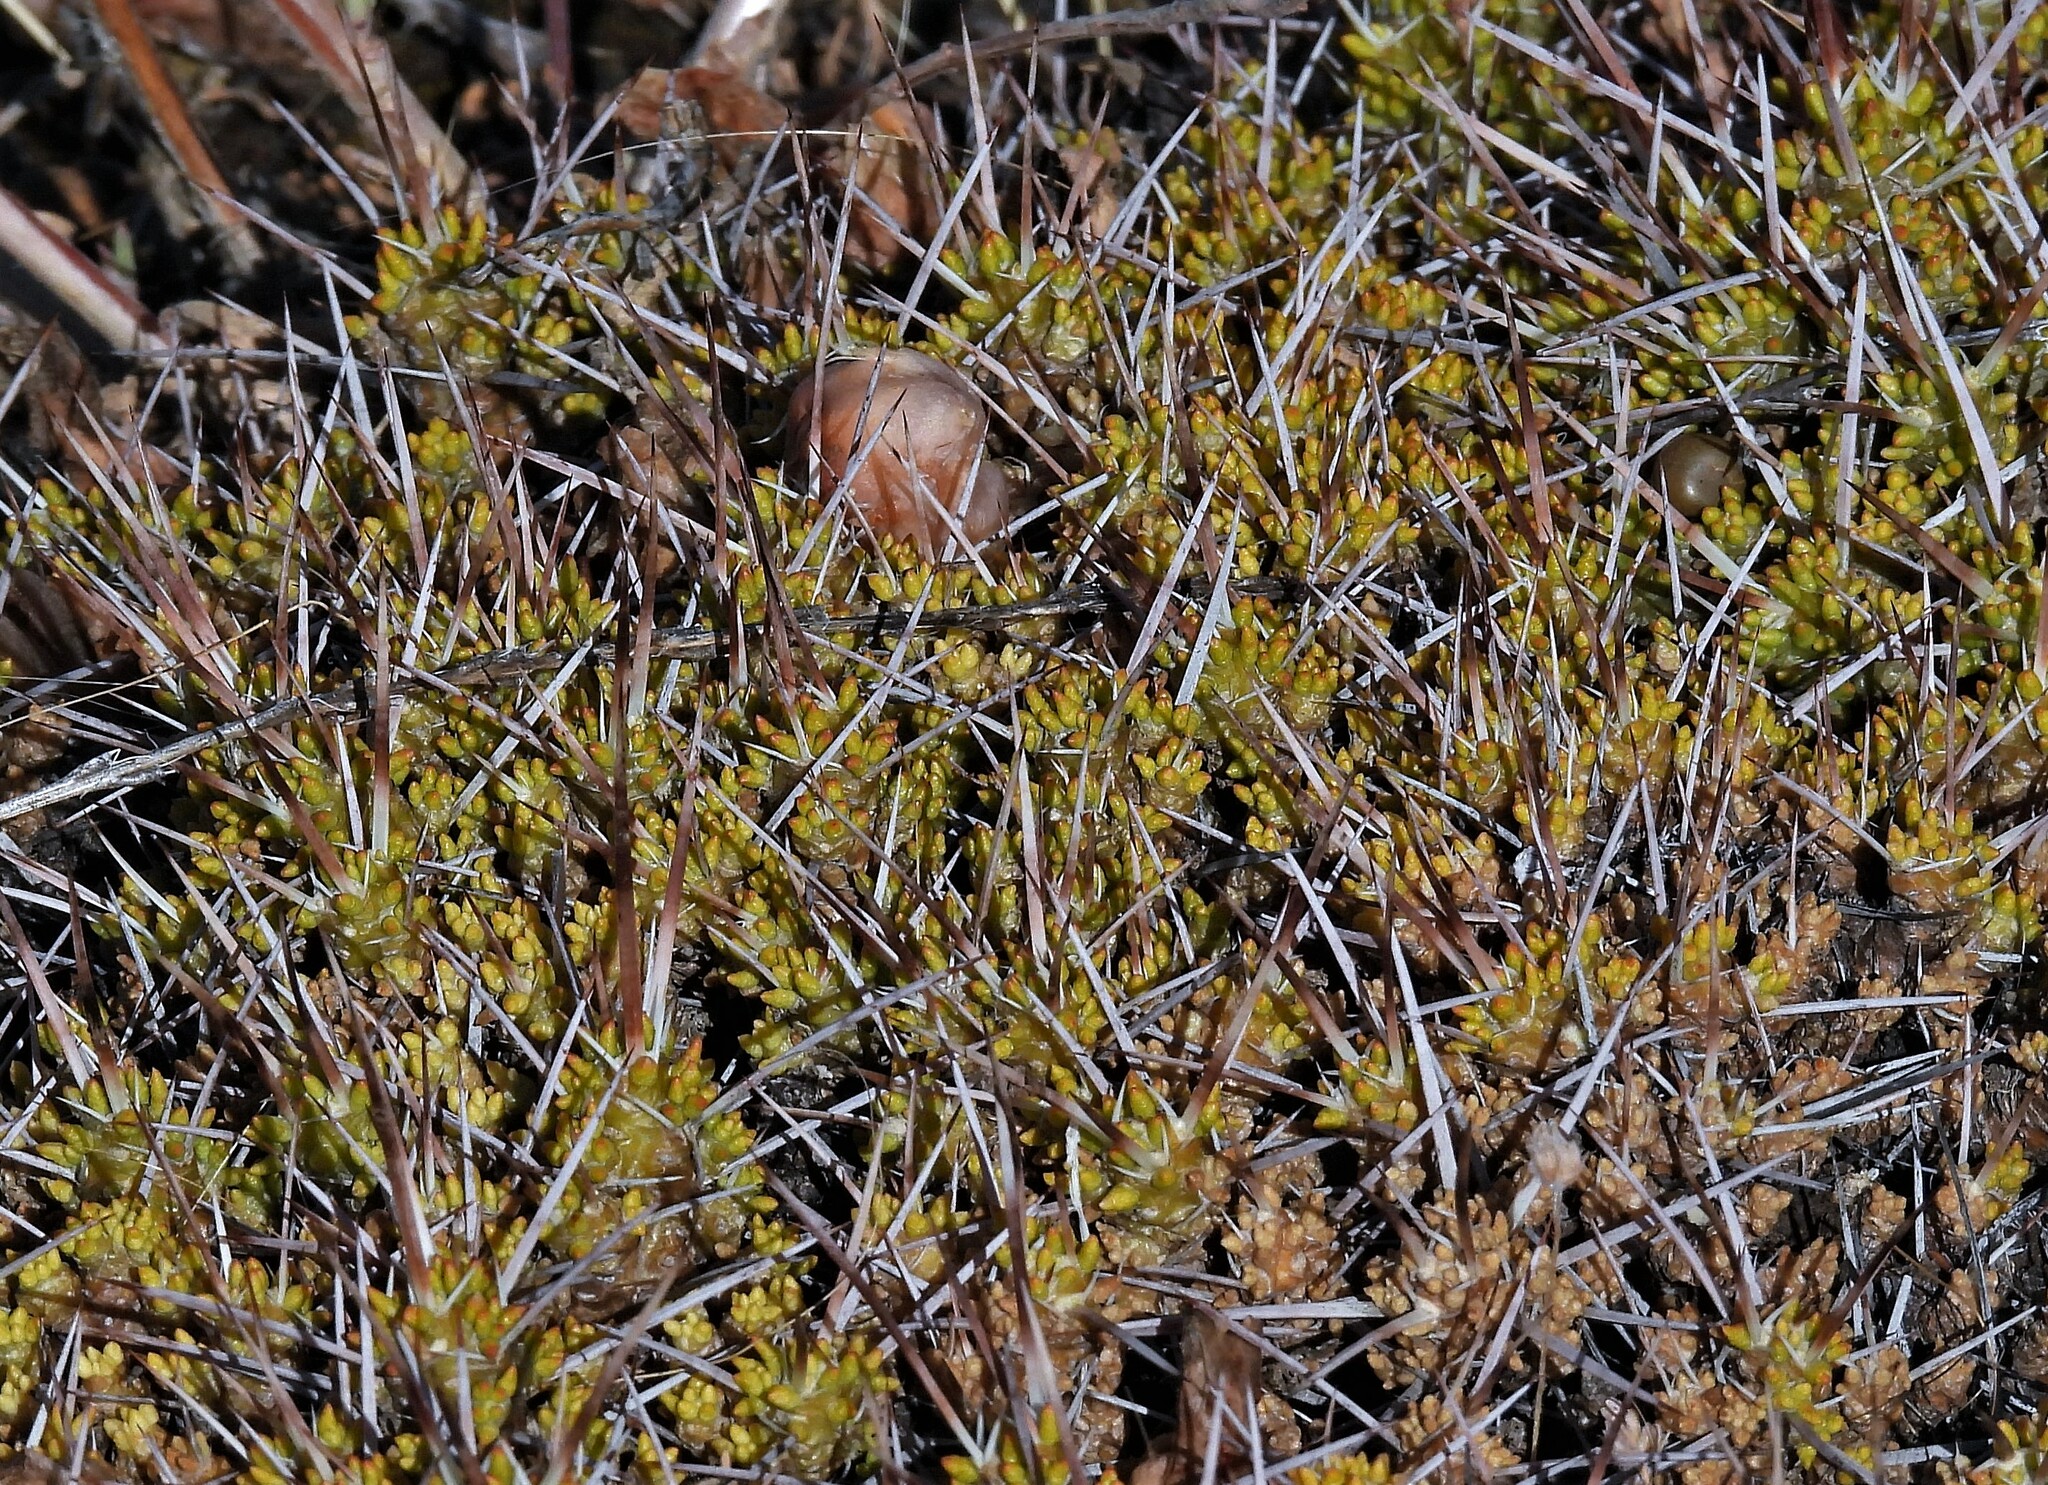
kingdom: Plantae
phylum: Tracheophyta
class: Magnoliopsida
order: Caryophyllales
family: Cactaceae
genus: Maihuenia
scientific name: Maihuenia patagonica
